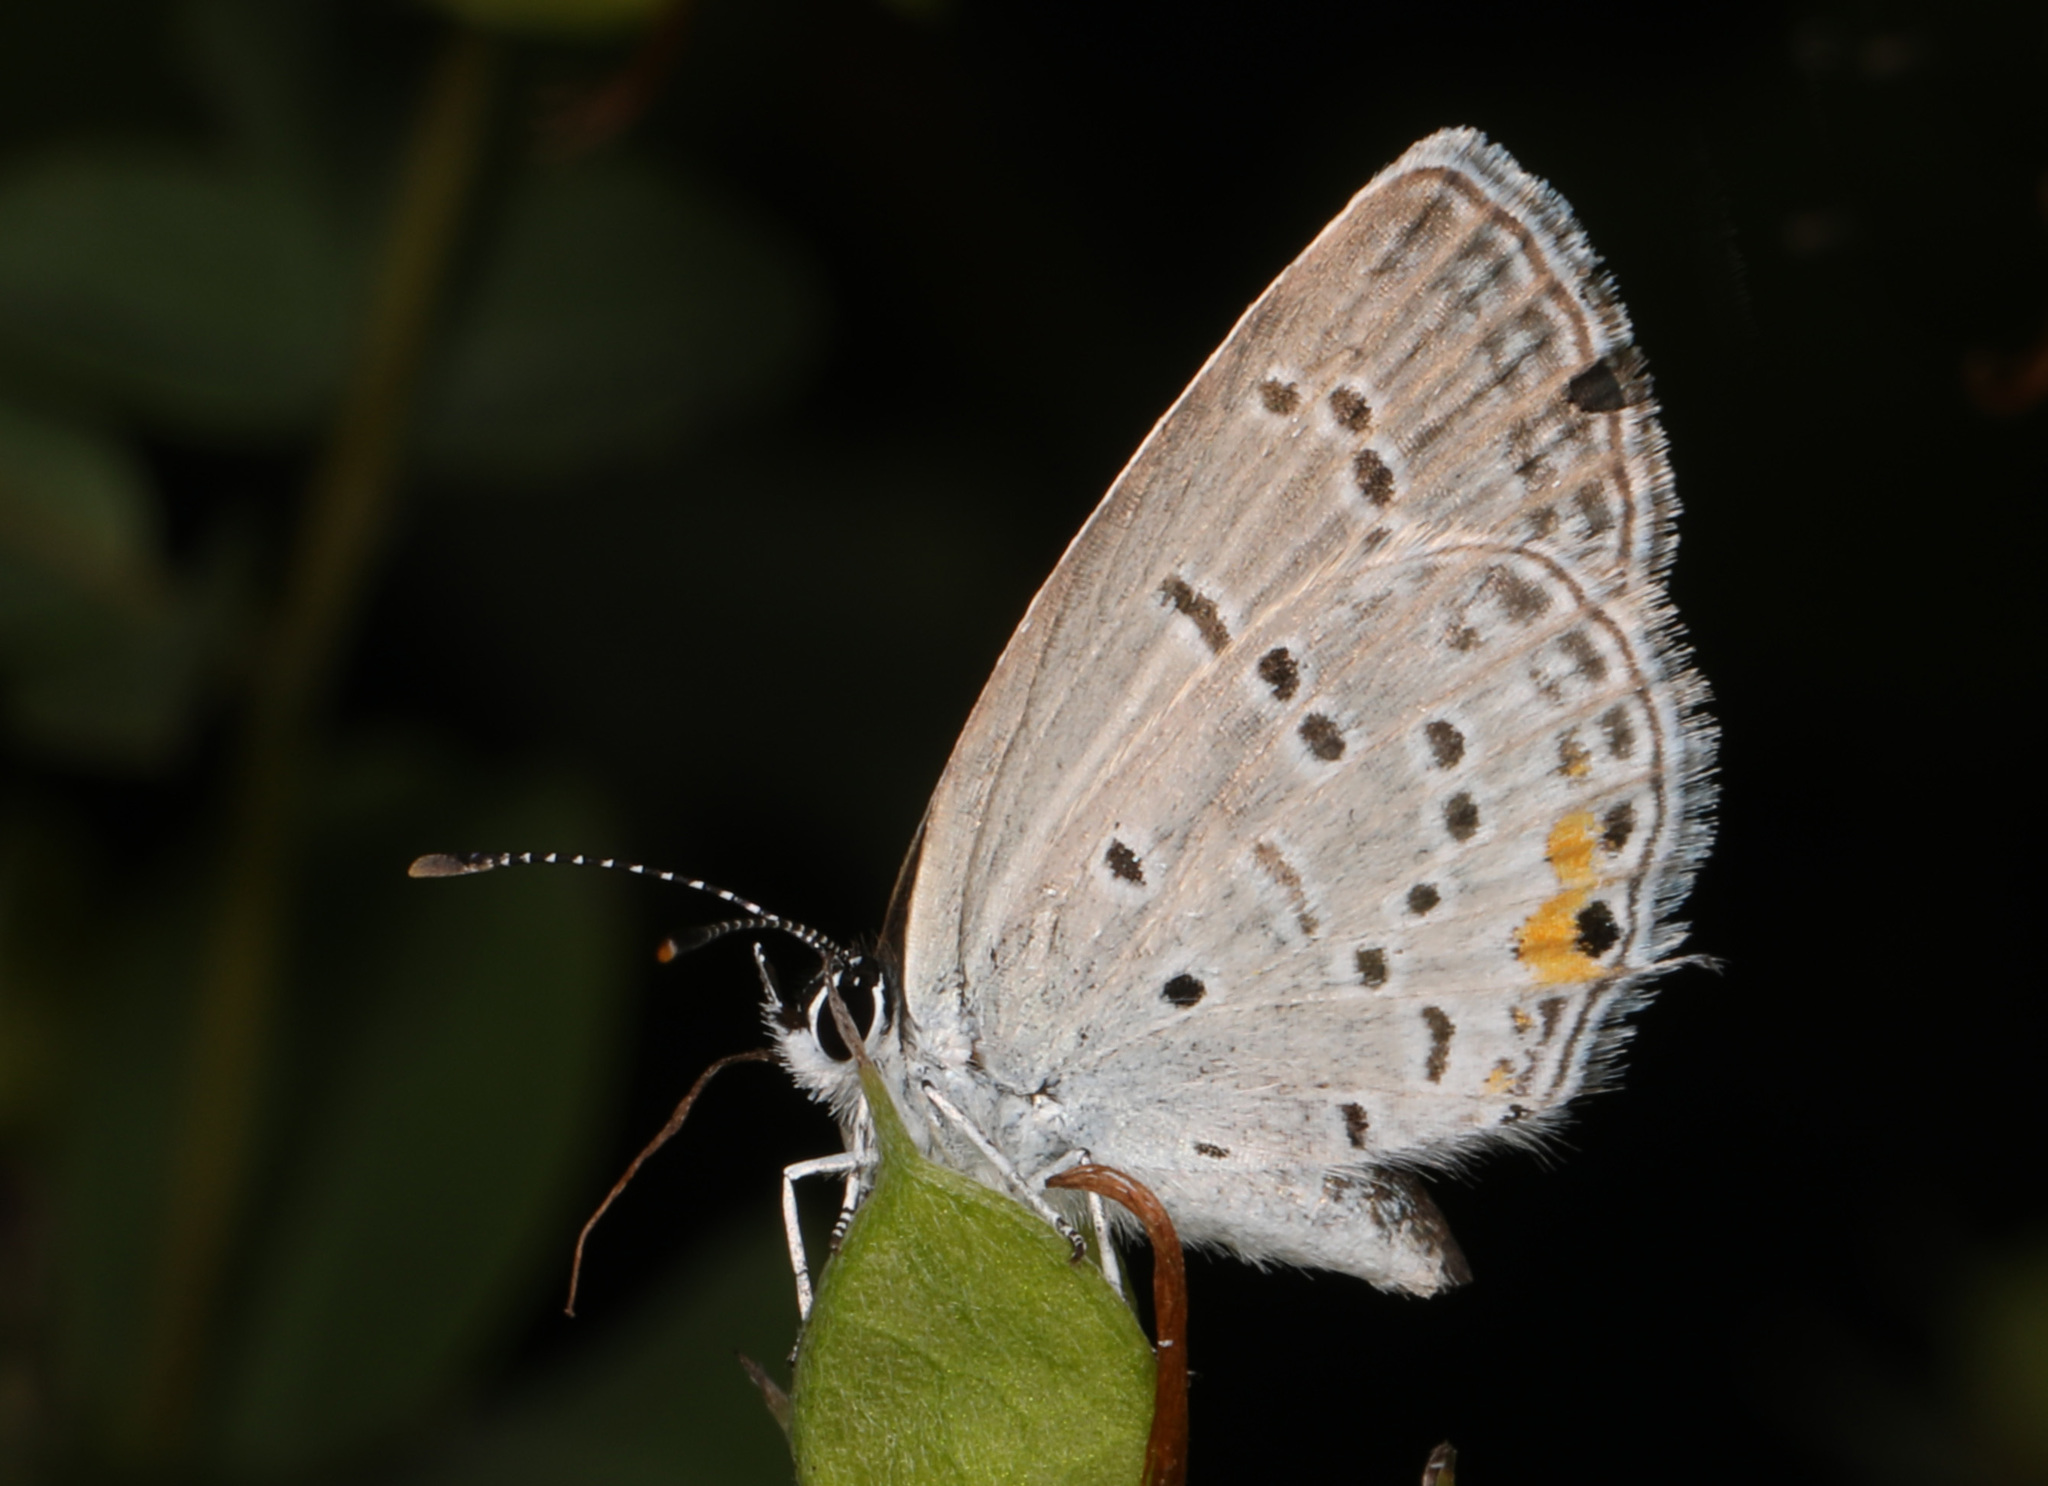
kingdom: Animalia
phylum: Arthropoda
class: Insecta
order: Lepidoptera
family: Lycaenidae
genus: Elkalyce
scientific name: Elkalyce comyntas
